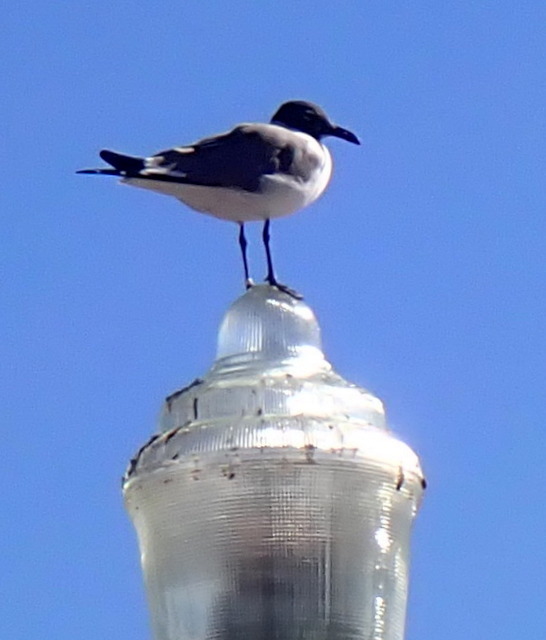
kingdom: Animalia
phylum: Chordata
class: Aves
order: Charadriiformes
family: Laridae
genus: Leucophaeus
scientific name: Leucophaeus atricilla
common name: Laughing gull
